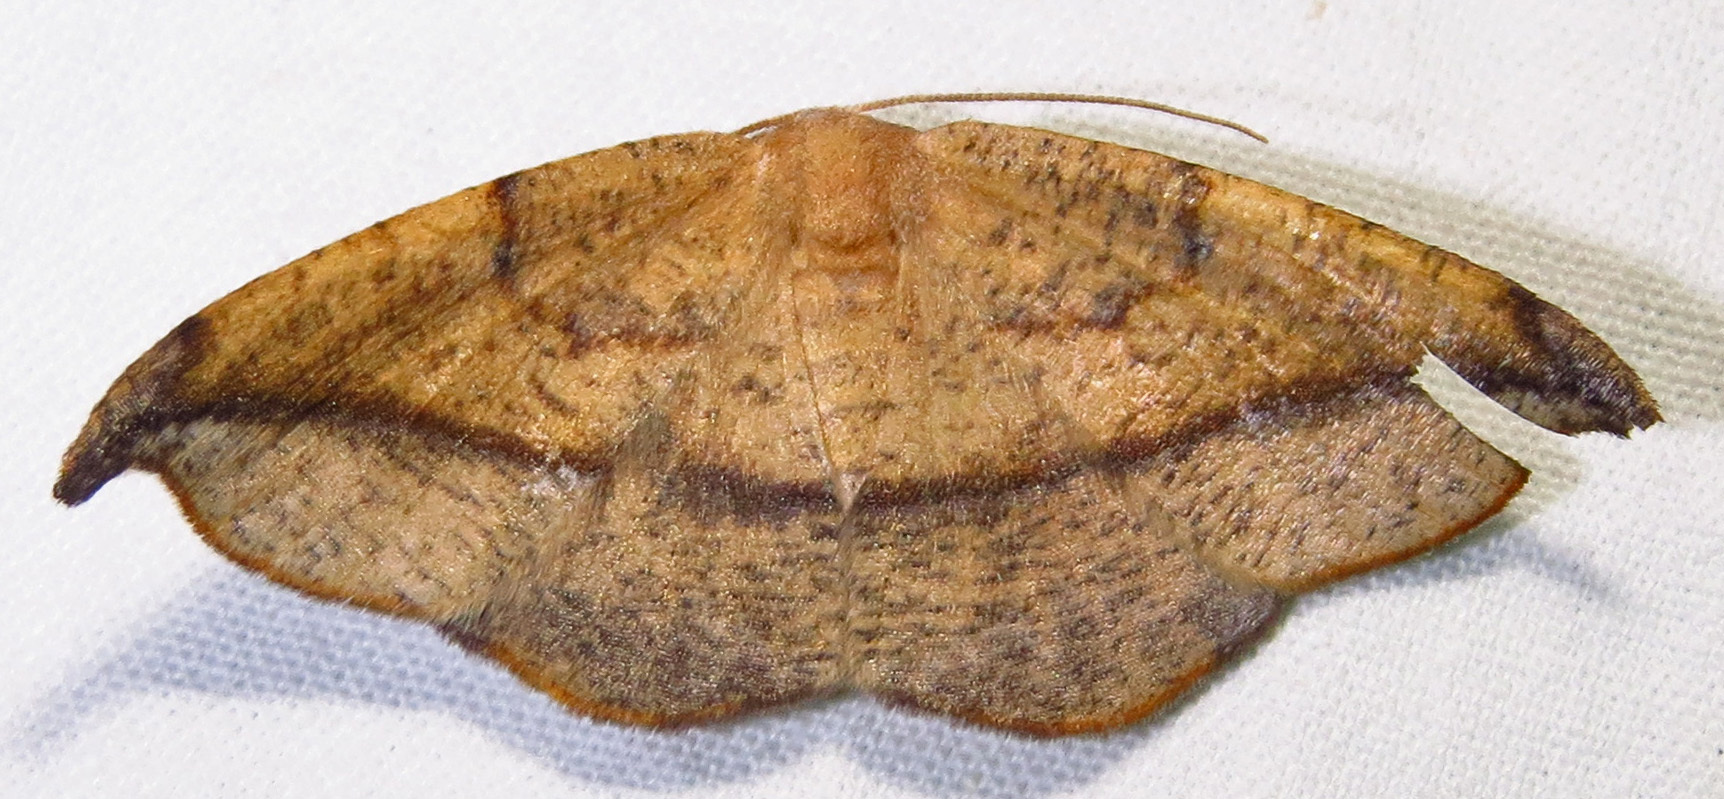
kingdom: Animalia
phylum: Arthropoda
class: Insecta
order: Lepidoptera
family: Geometridae
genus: Patalene
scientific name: Patalene olyzonaria
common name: Juniper geometer moth
